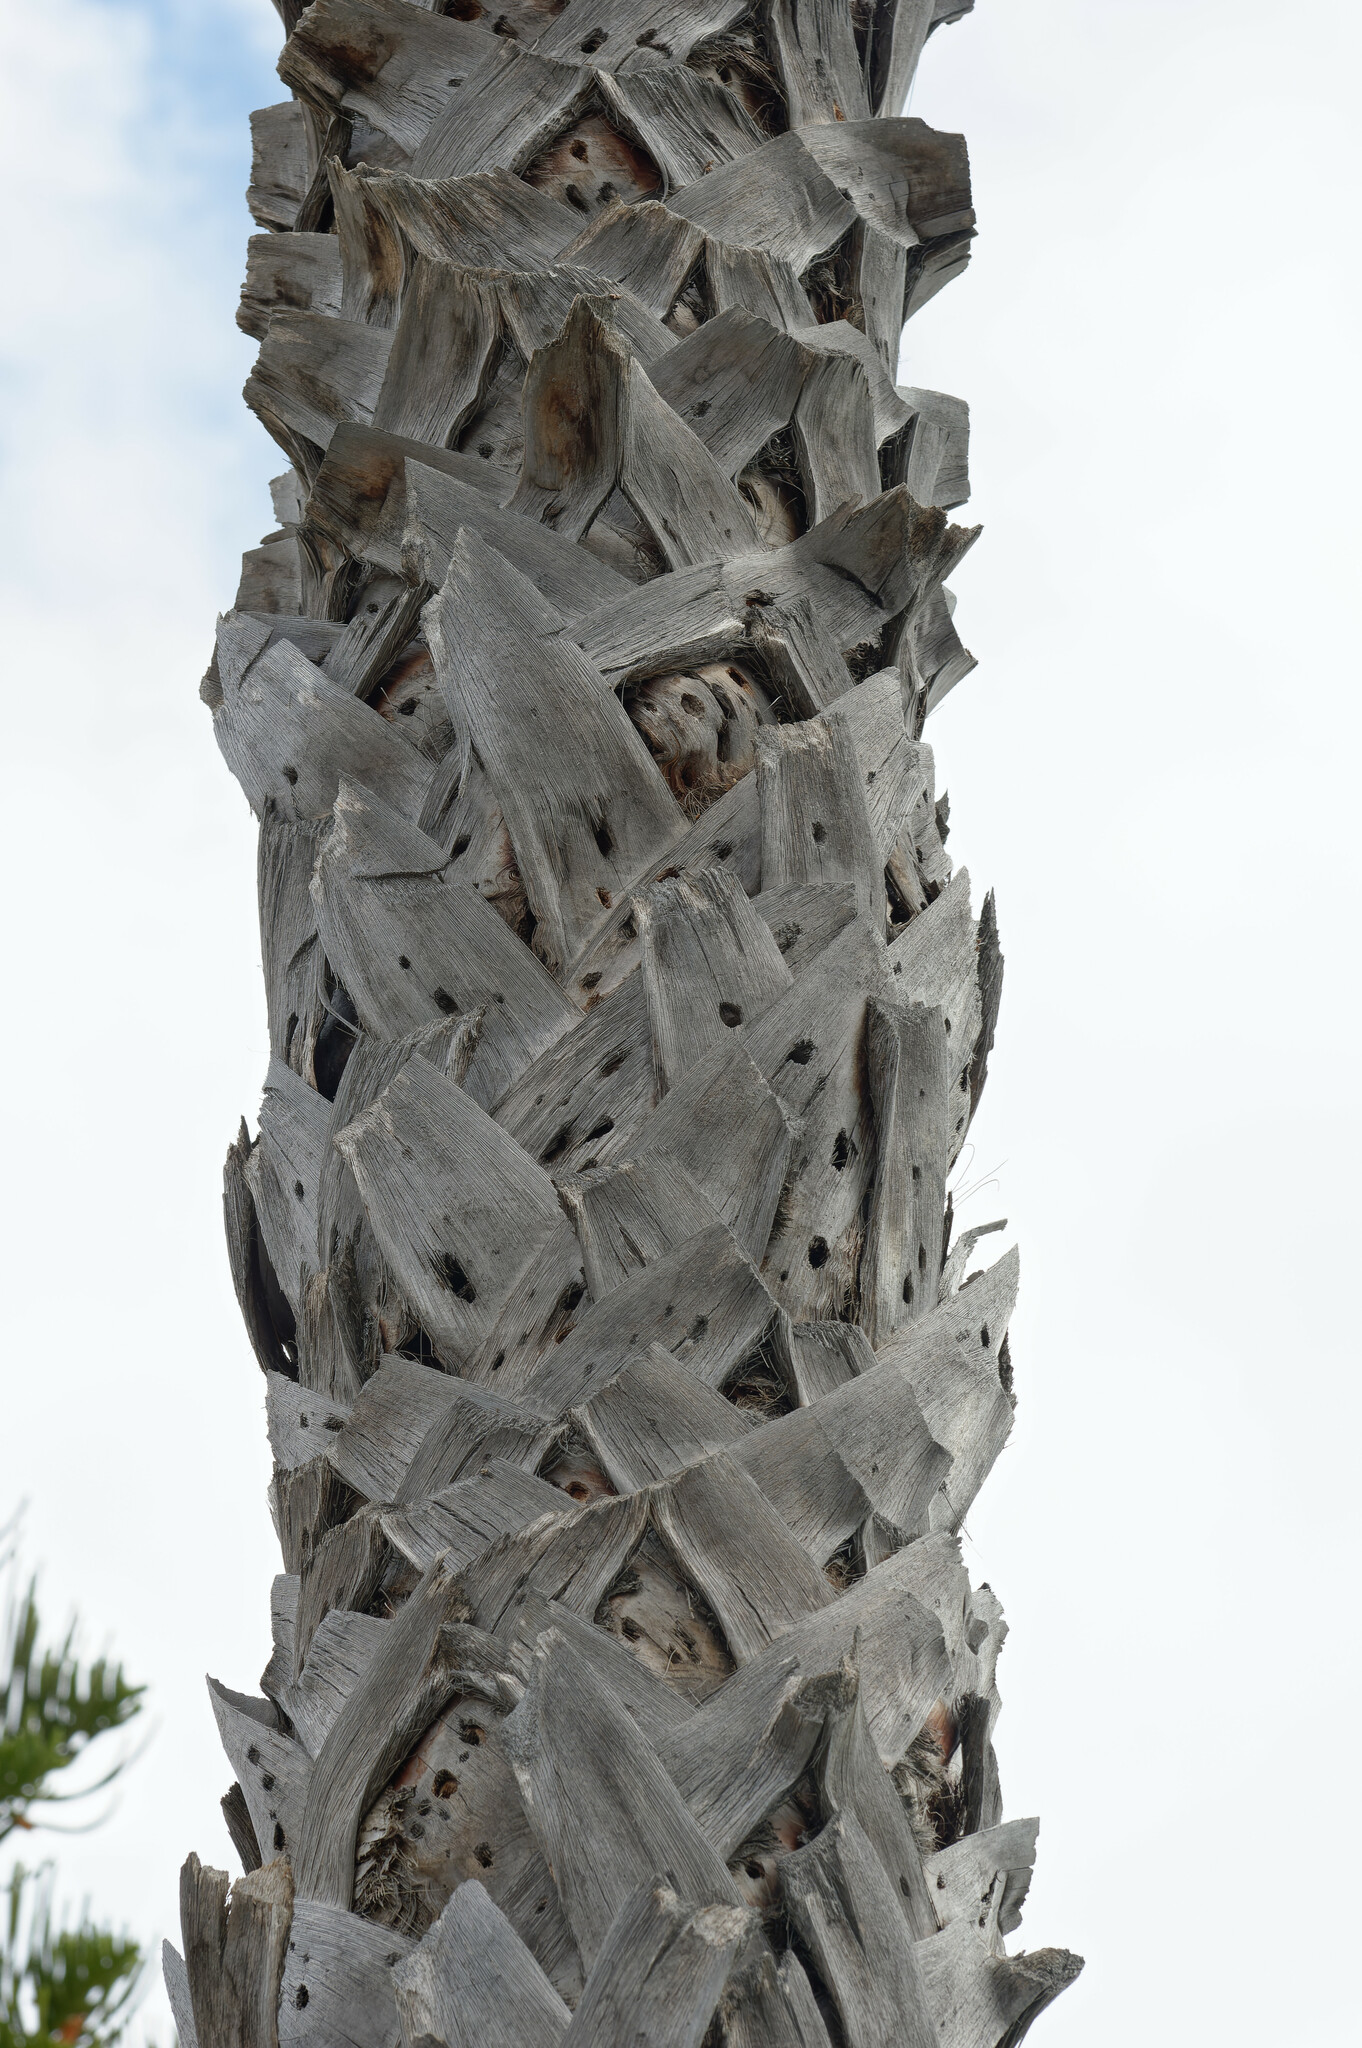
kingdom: Animalia
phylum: Chordata
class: Aves
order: Piciformes
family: Picidae
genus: Melanerpes
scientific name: Melanerpes formicivorus
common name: Acorn woodpecker
